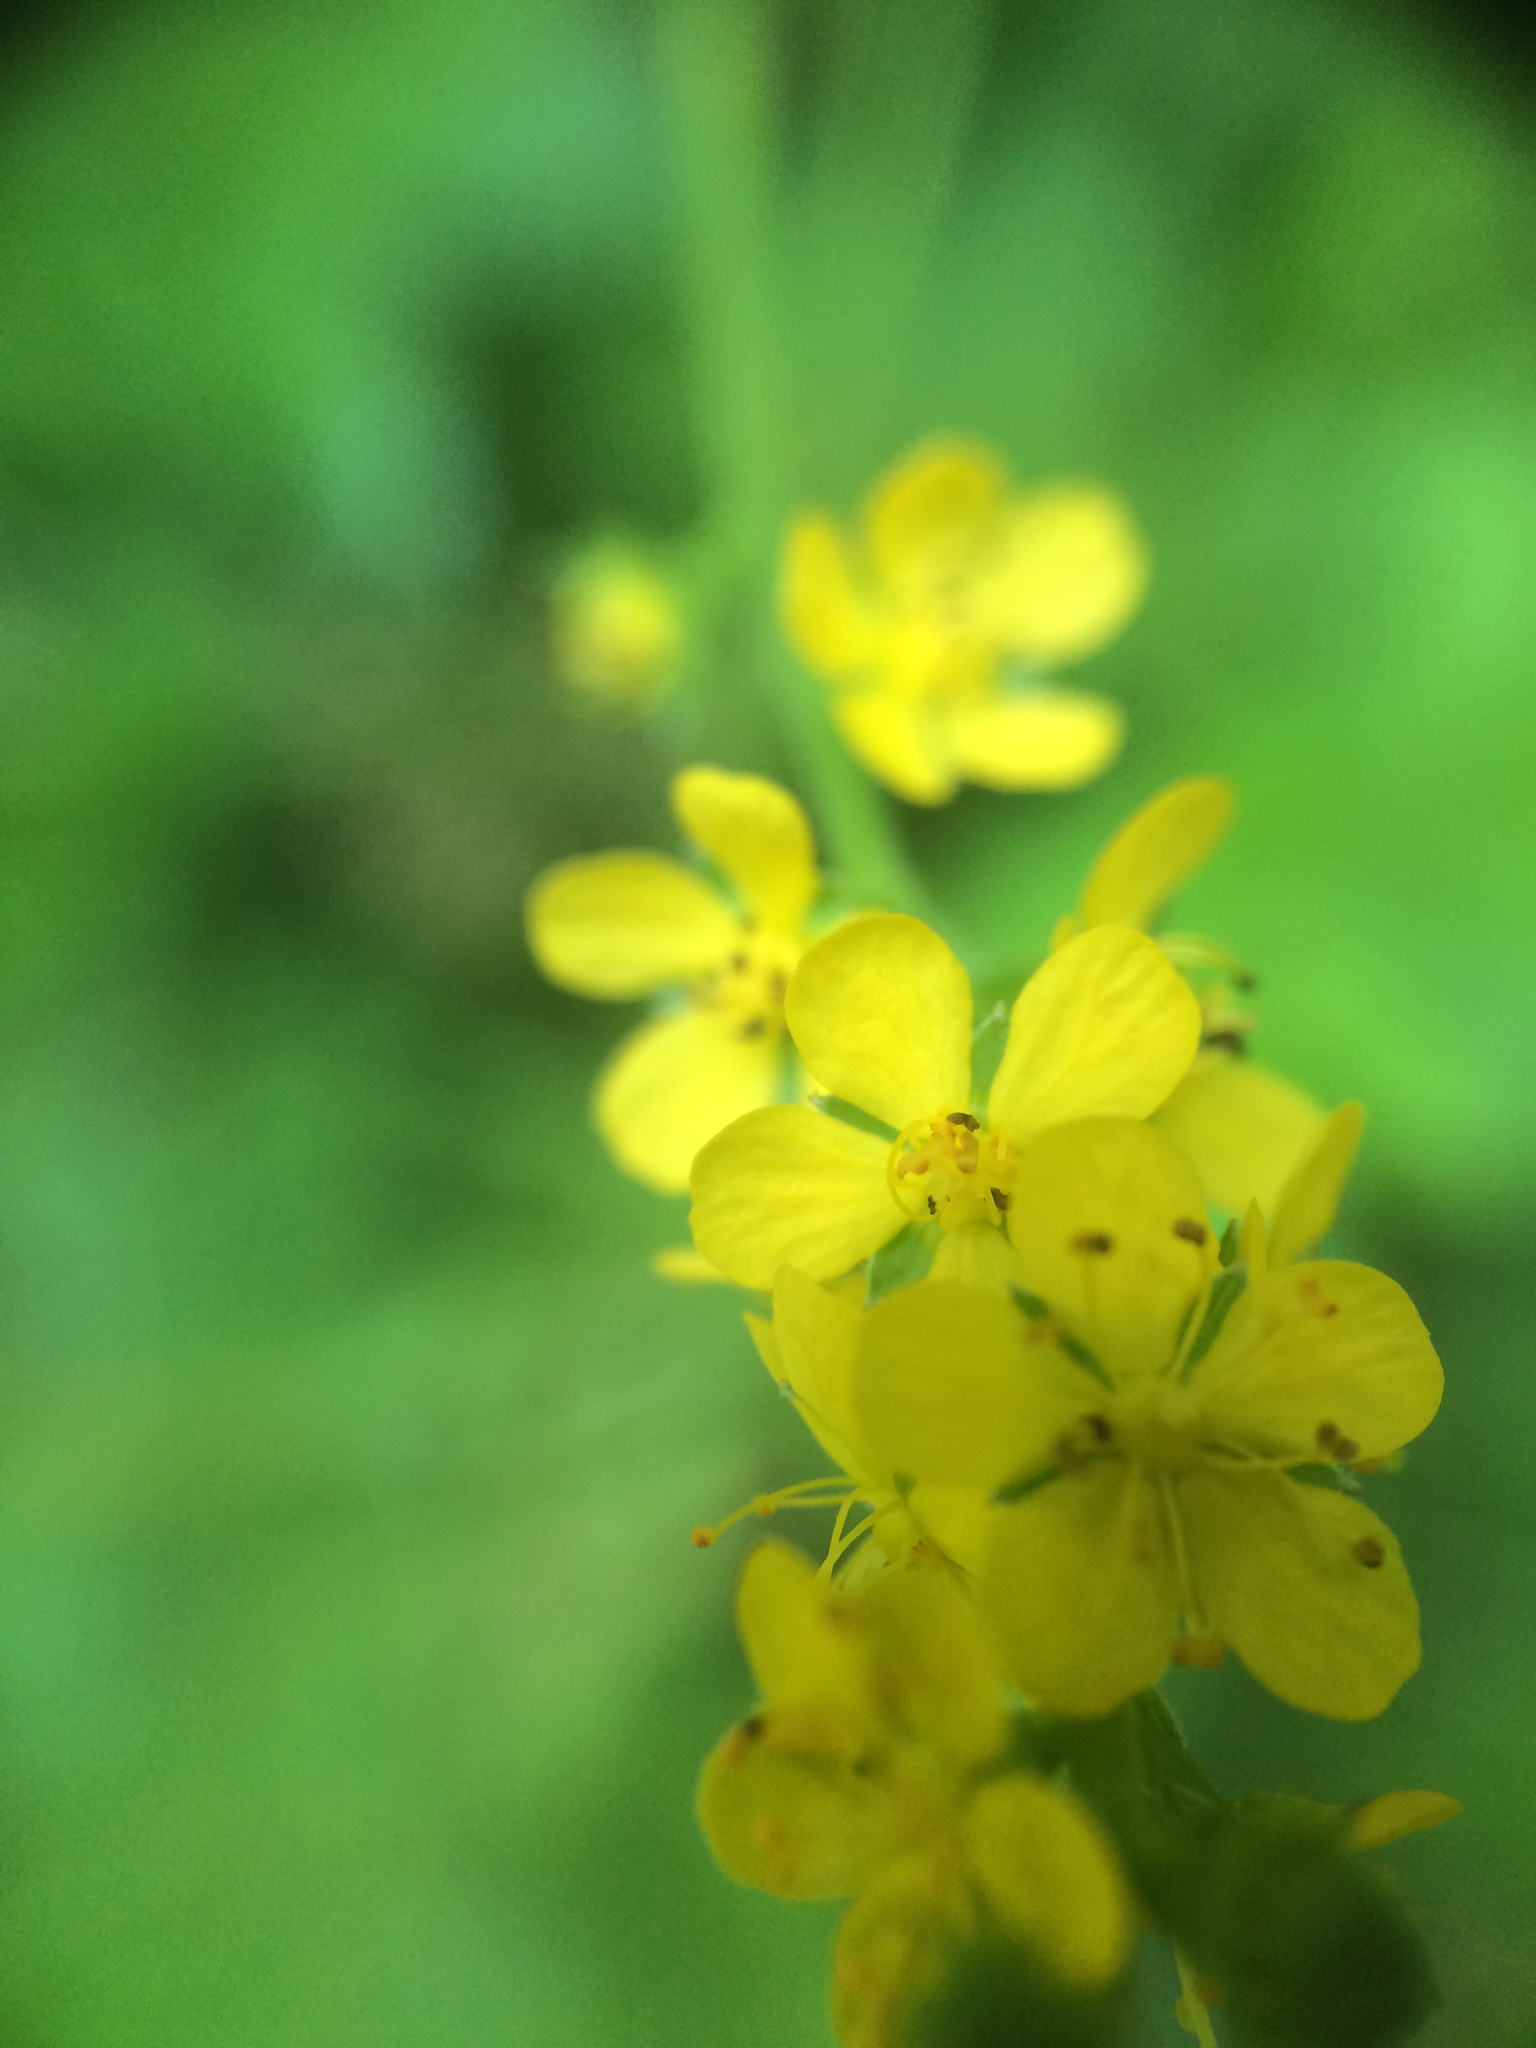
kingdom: Plantae
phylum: Tracheophyta
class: Magnoliopsida
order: Rosales
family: Rosaceae
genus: Agrimonia
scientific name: Agrimonia striata
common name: Britton's agrimony
